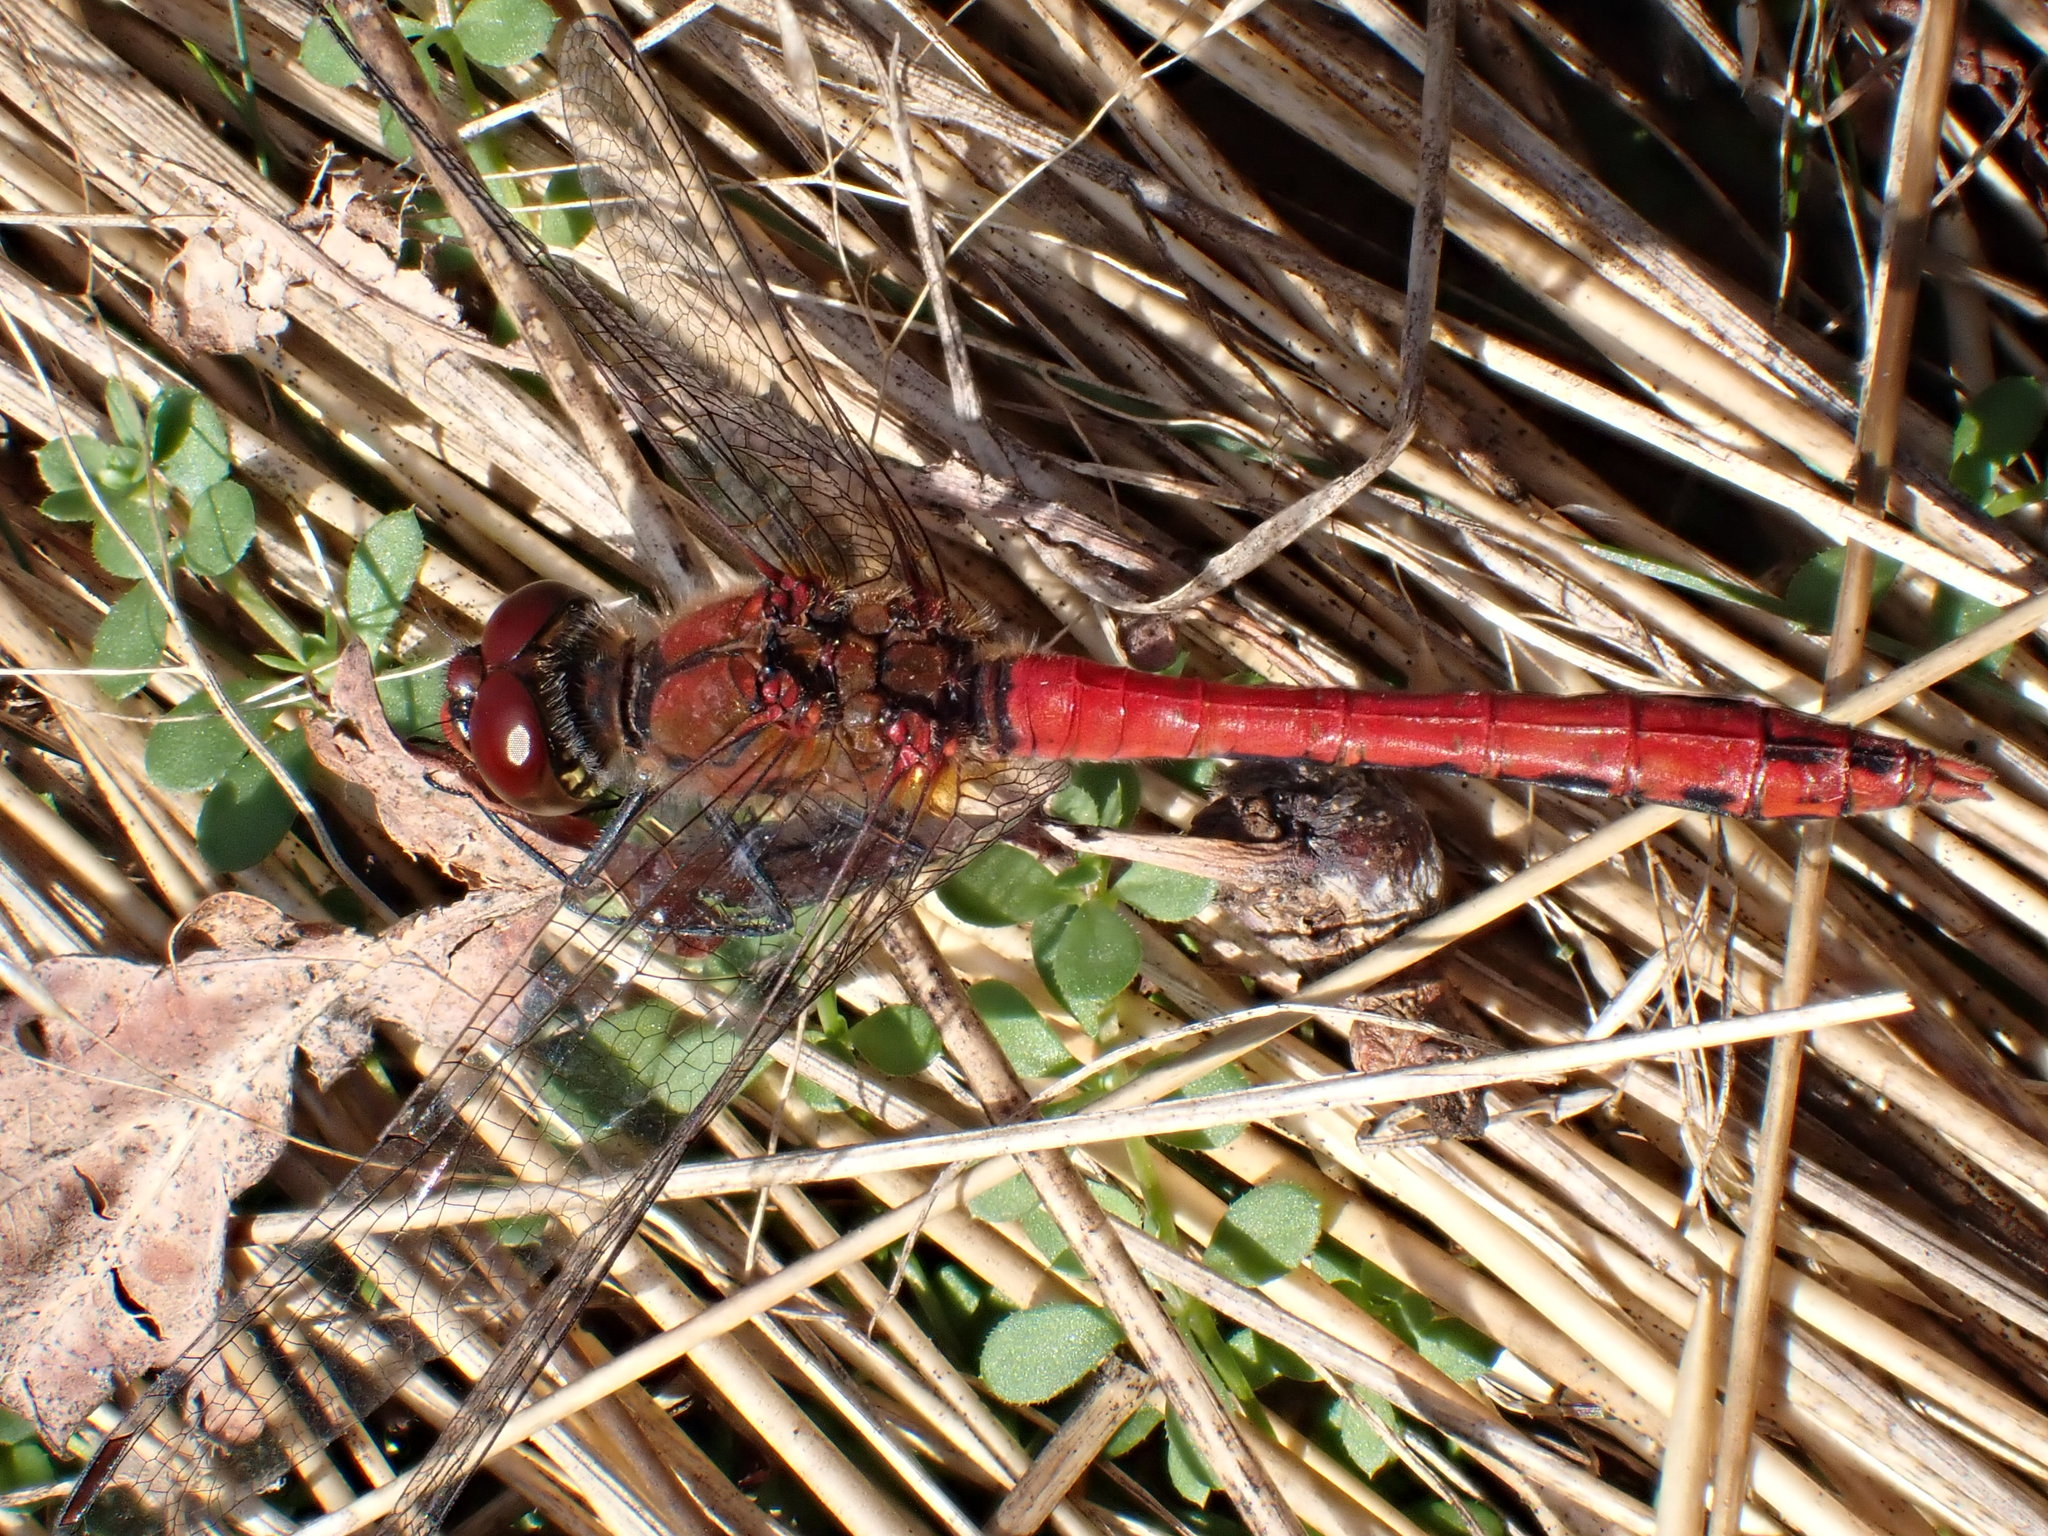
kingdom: Animalia
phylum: Arthropoda
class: Insecta
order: Odonata
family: Libellulidae
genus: Sympetrum
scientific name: Sympetrum sanguineum
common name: Ruddy darter
